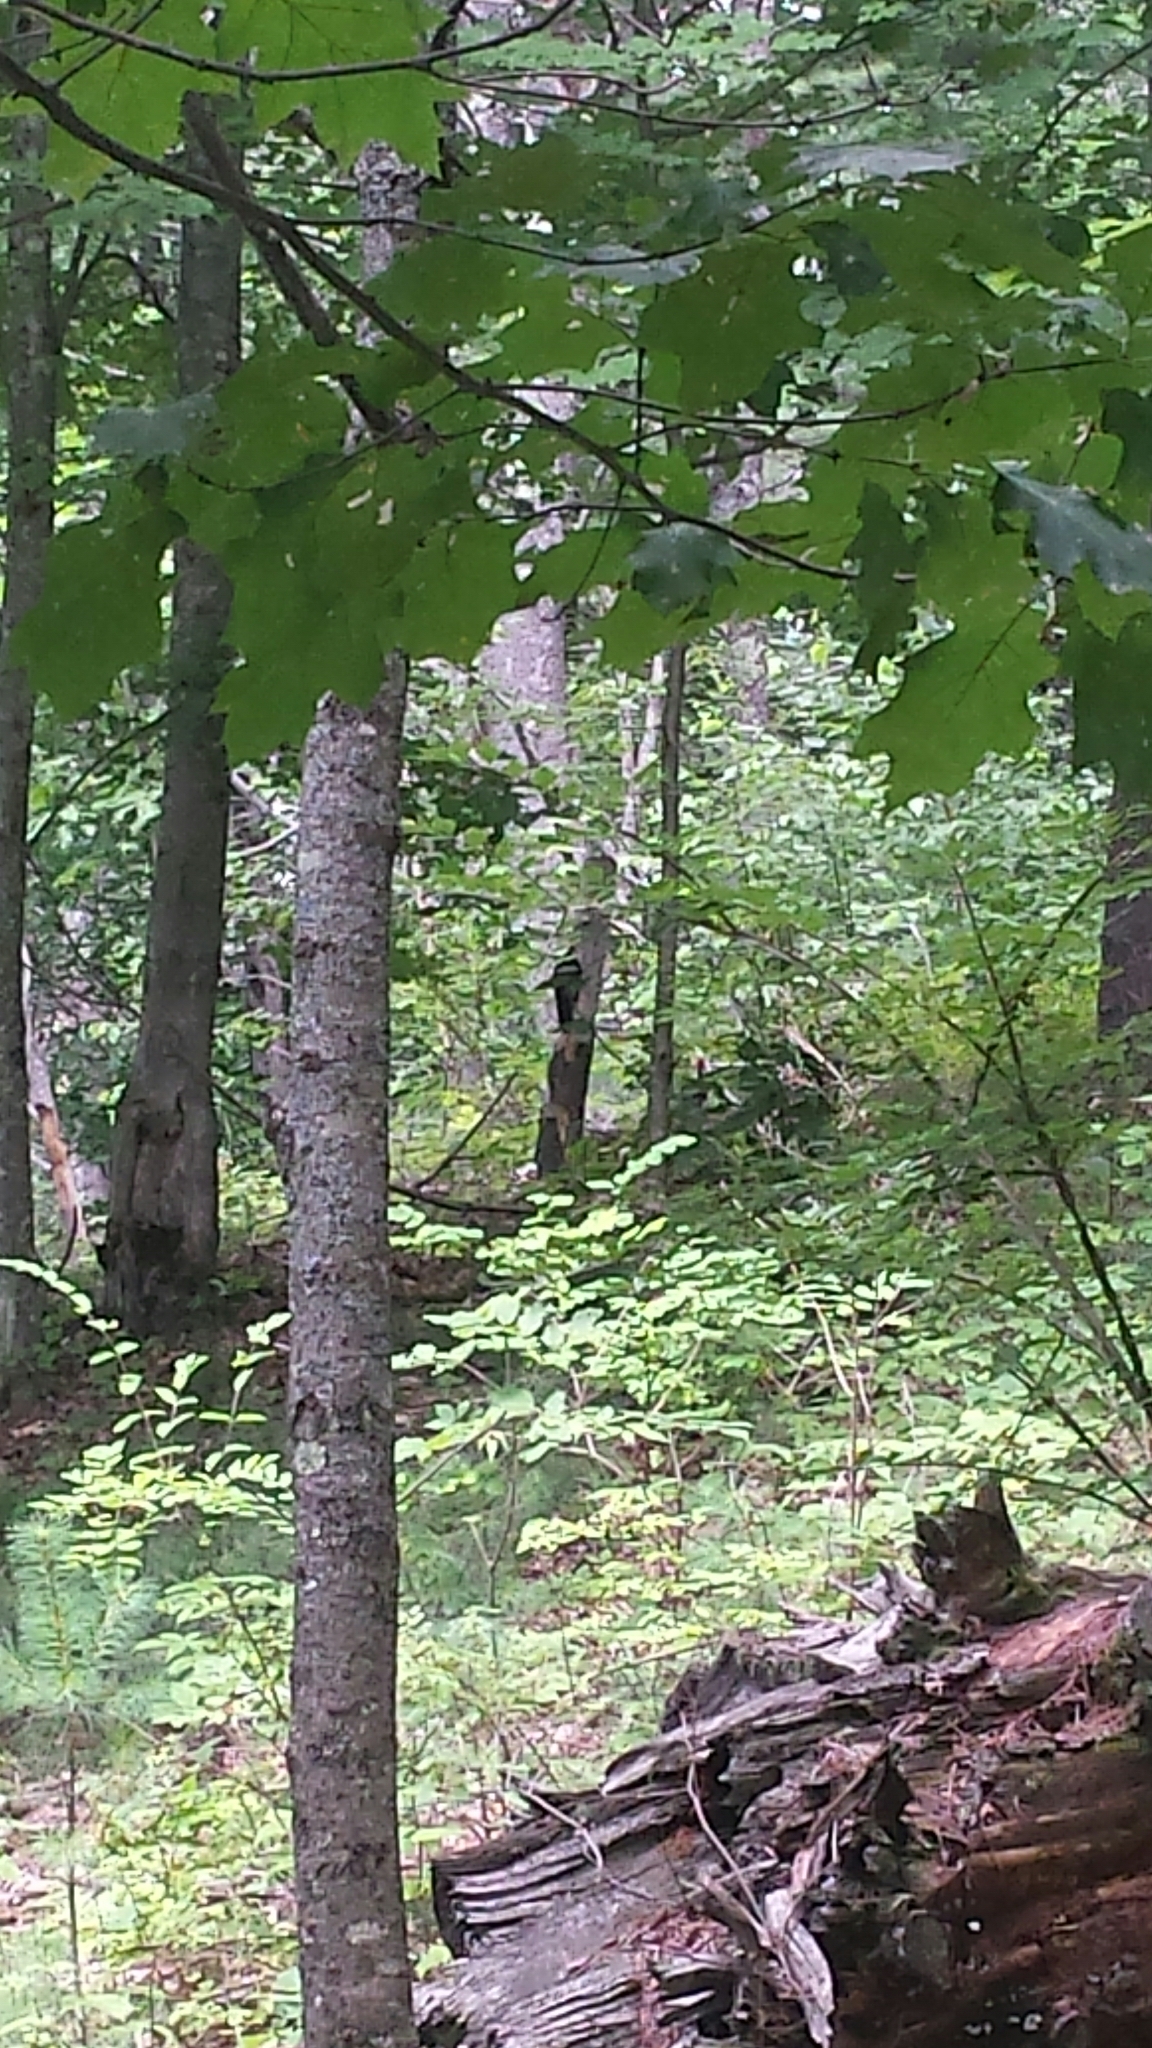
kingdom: Animalia
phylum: Chordata
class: Aves
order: Piciformes
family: Picidae
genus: Dryocopus
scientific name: Dryocopus pileatus
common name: Pileated woodpecker
